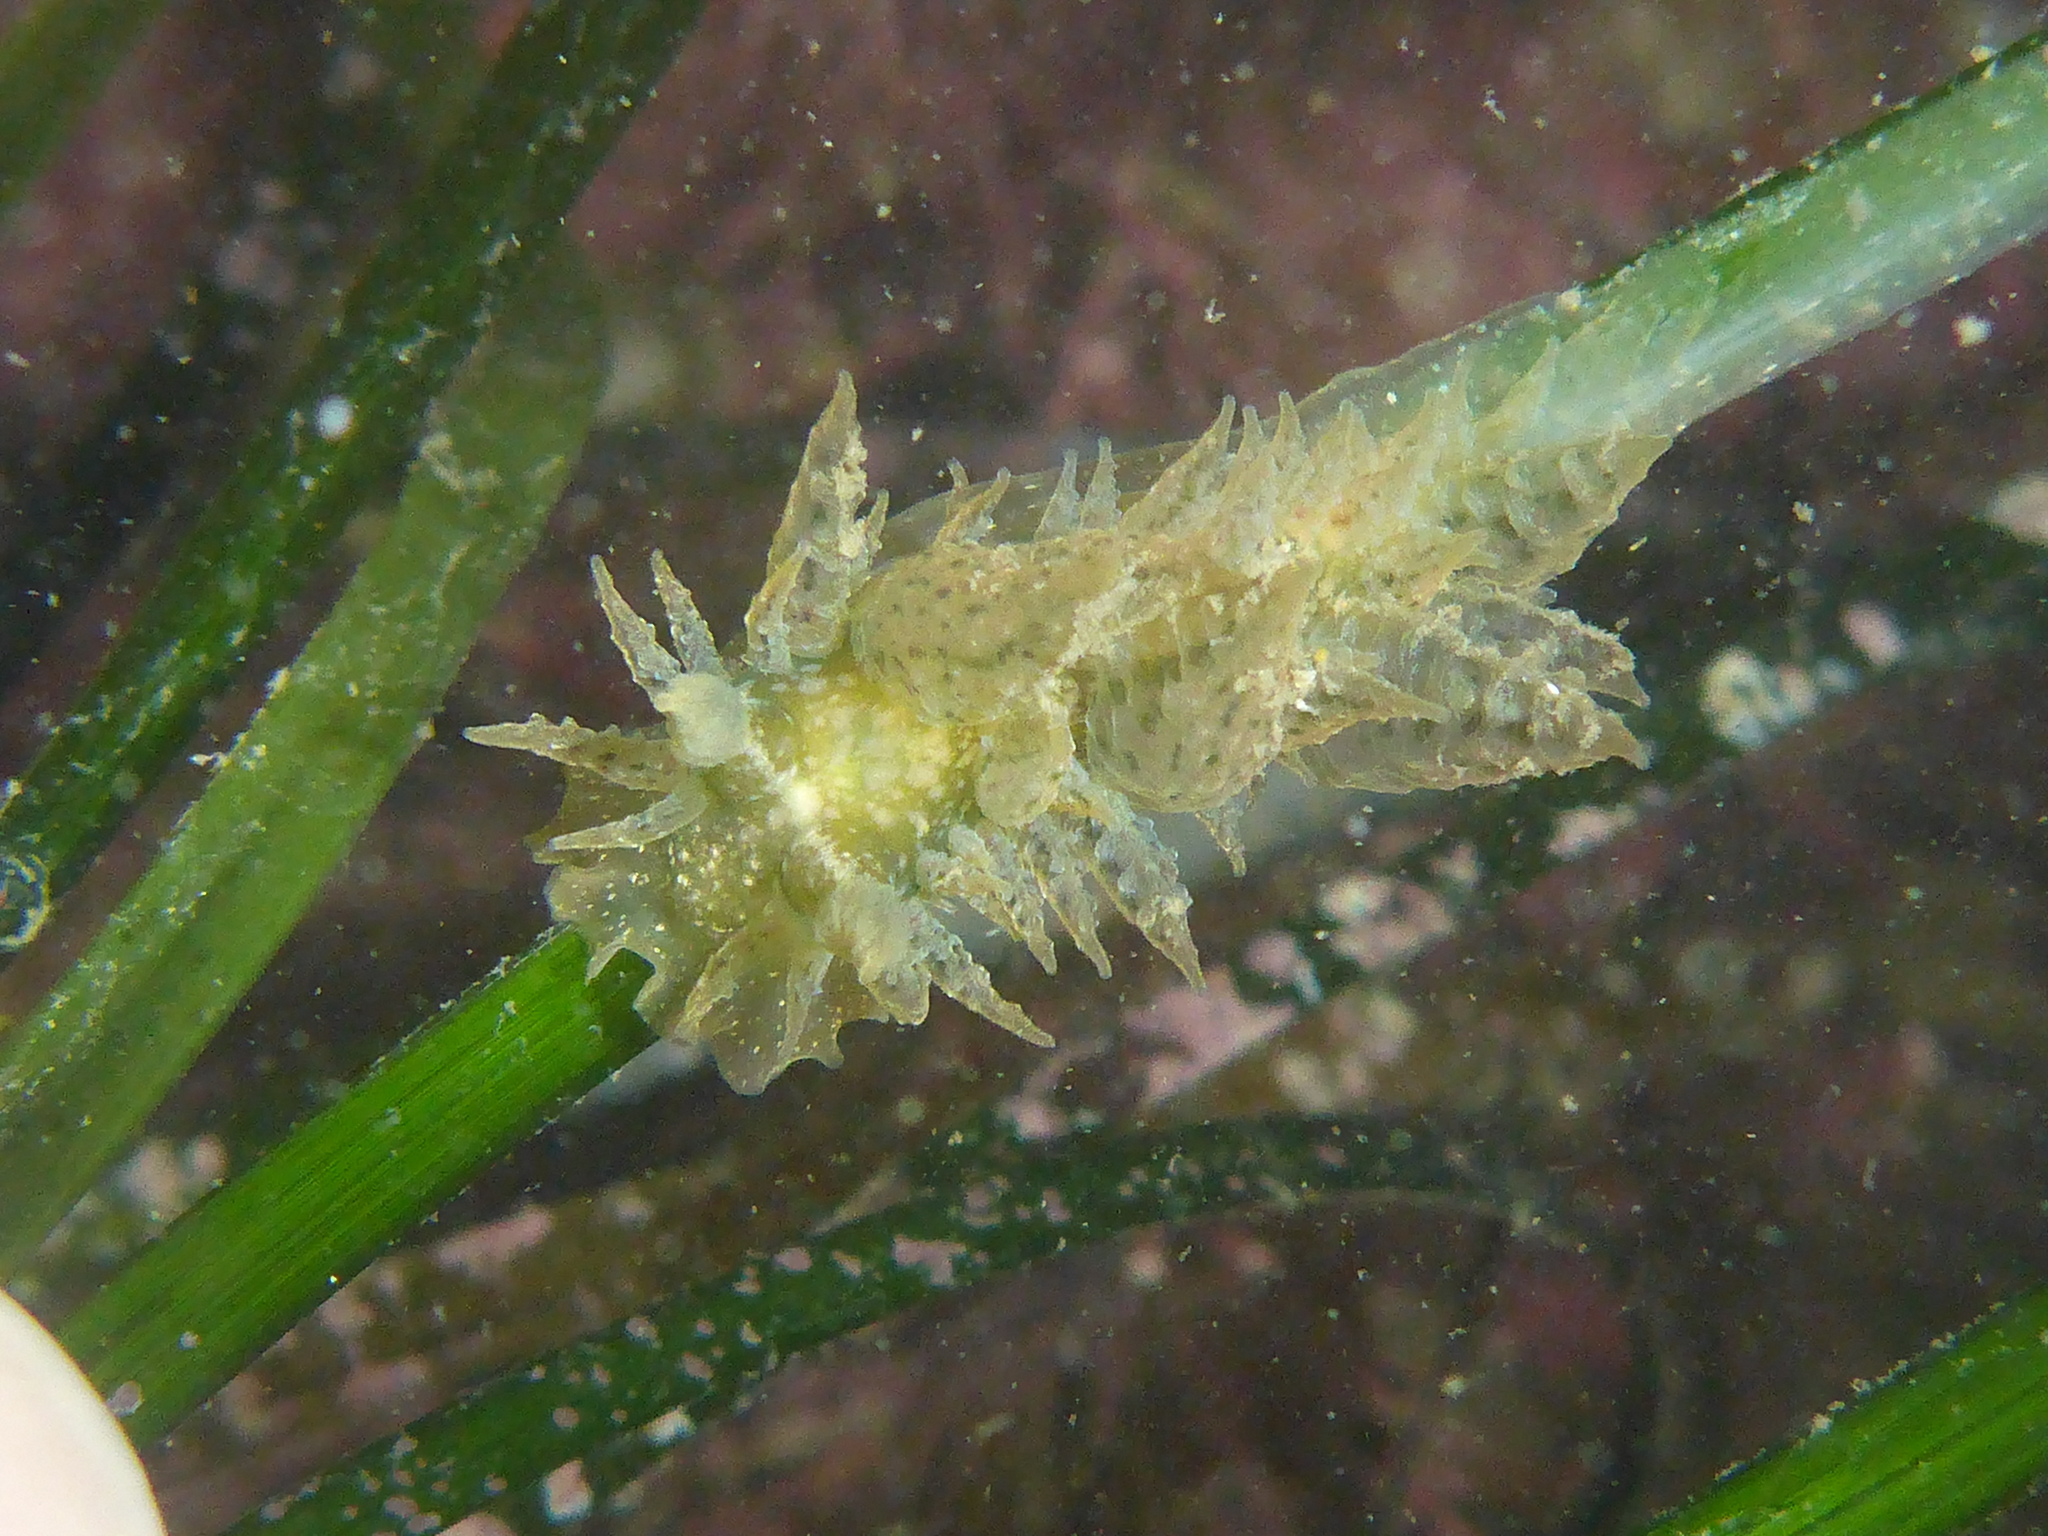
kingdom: Animalia
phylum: Mollusca
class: Gastropoda
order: Nudibranchia
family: Dironidae
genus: Dirona
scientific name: Dirona picta
